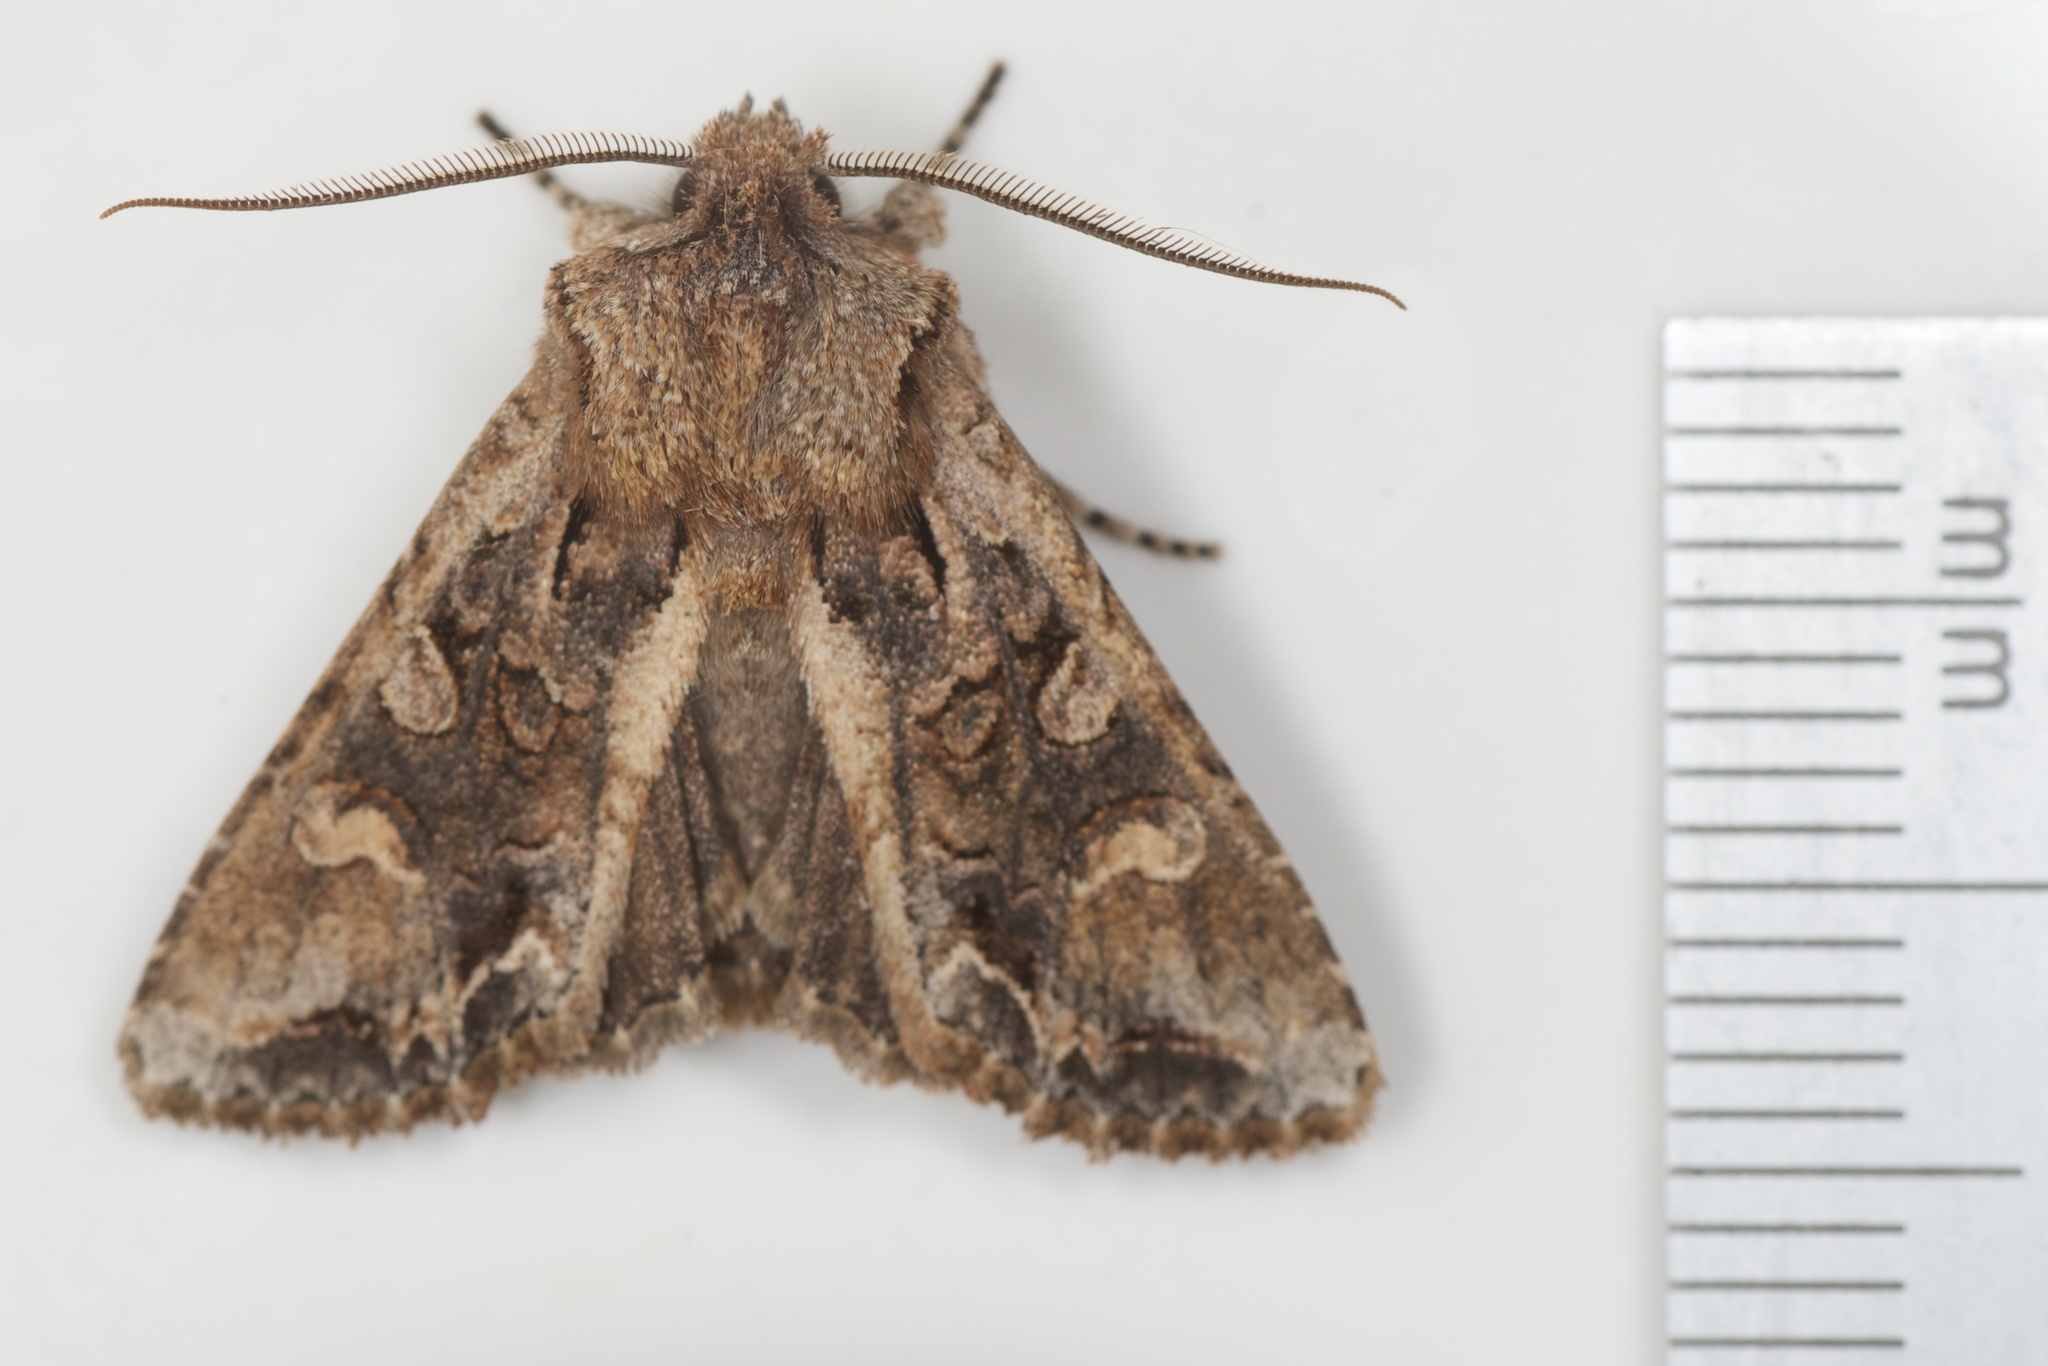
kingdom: Animalia
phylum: Arthropoda
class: Insecta
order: Lepidoptera
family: Noctuidae
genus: Ichneutica
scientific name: Ichneutica insignis
